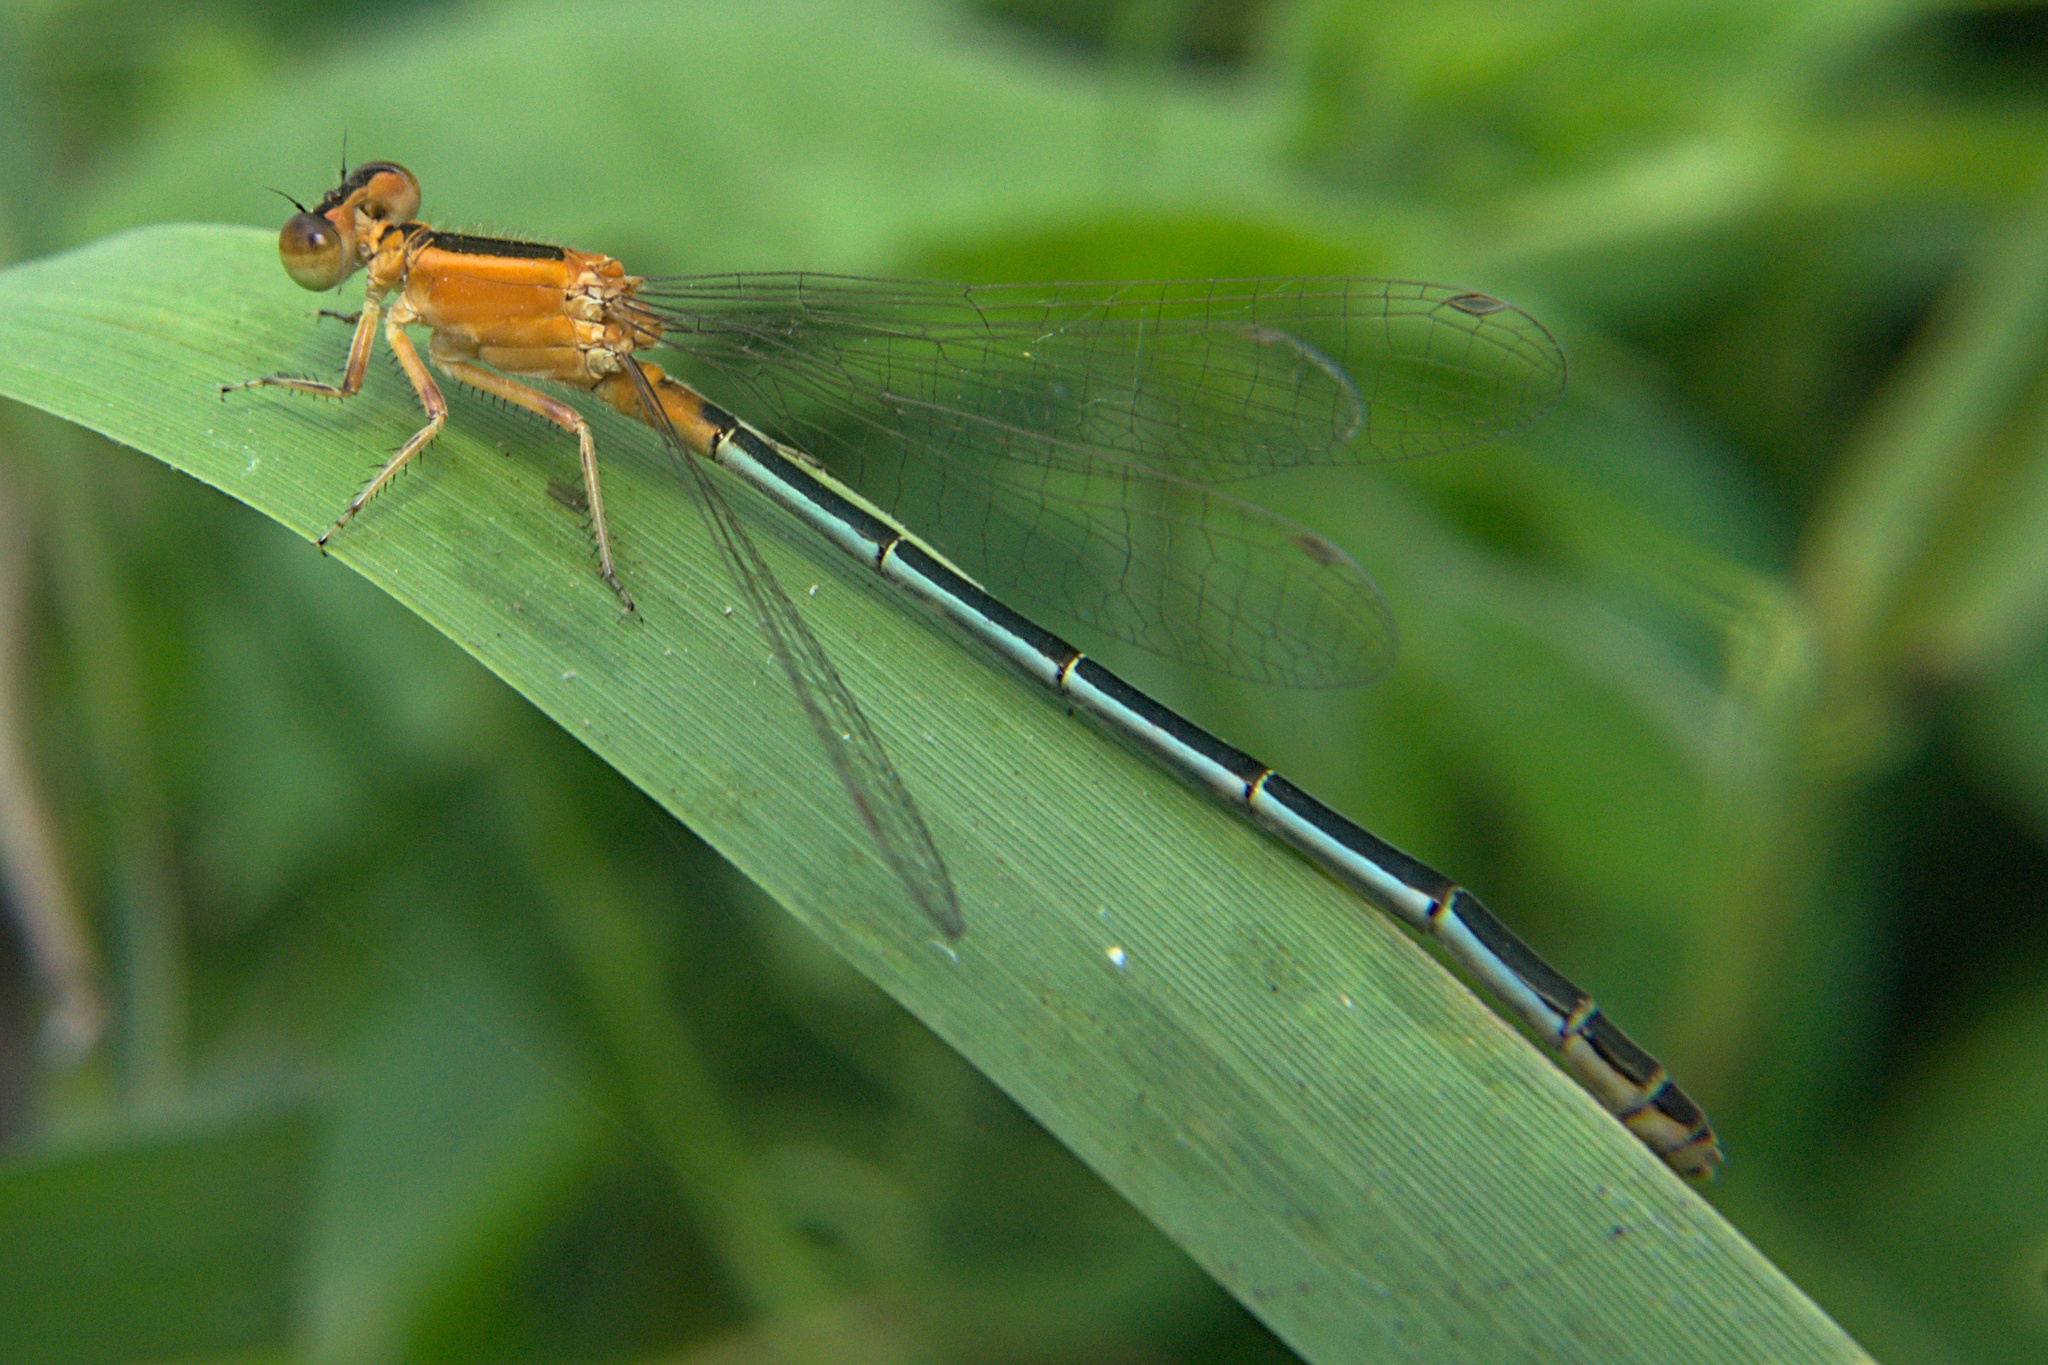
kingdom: Animalia
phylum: Arthropoda
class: Insecta
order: Odonata
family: Coenagrionidae
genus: Ischnura
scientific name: Ischnura senegalensis
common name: Tropical bluetail
